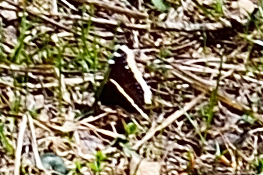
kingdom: Animalia
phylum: Arthropoda
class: Insecta
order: Lepidoptera
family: Nymphalidae
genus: Nymphalis
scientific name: Nymphalis antiopa
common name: Camberwell beauty
